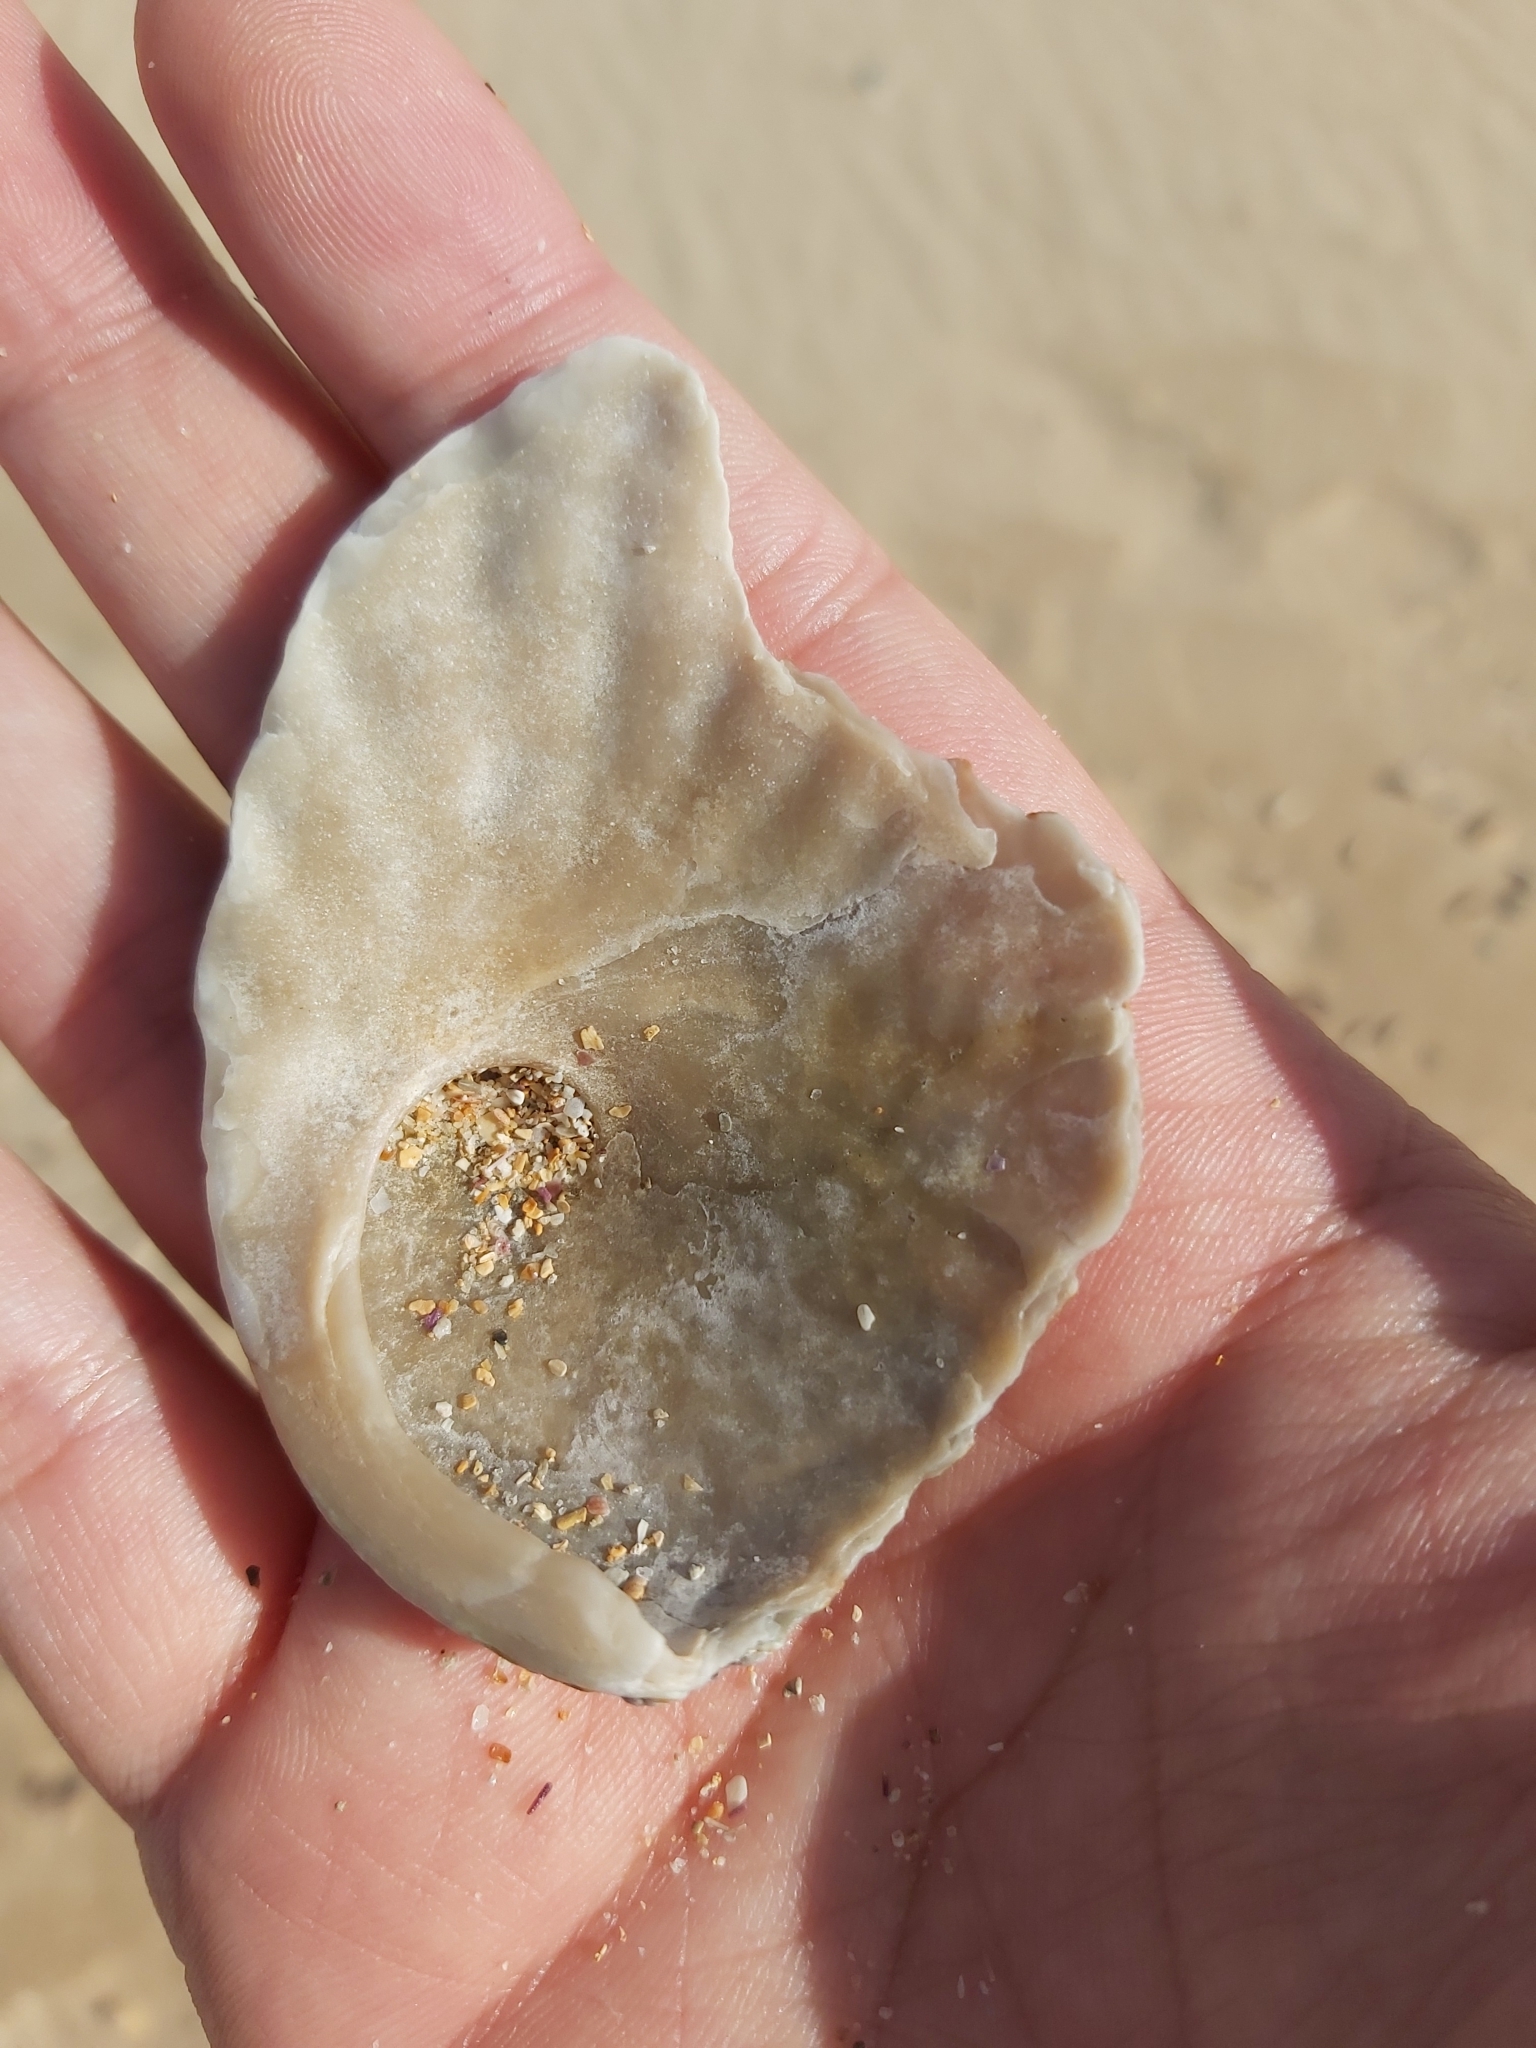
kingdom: Animalia
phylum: Mollusca
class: Gastropoda
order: Lepetellida
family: Haliotidae
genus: Haliotis
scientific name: Haliotis rubra
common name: Blacklip abalone
